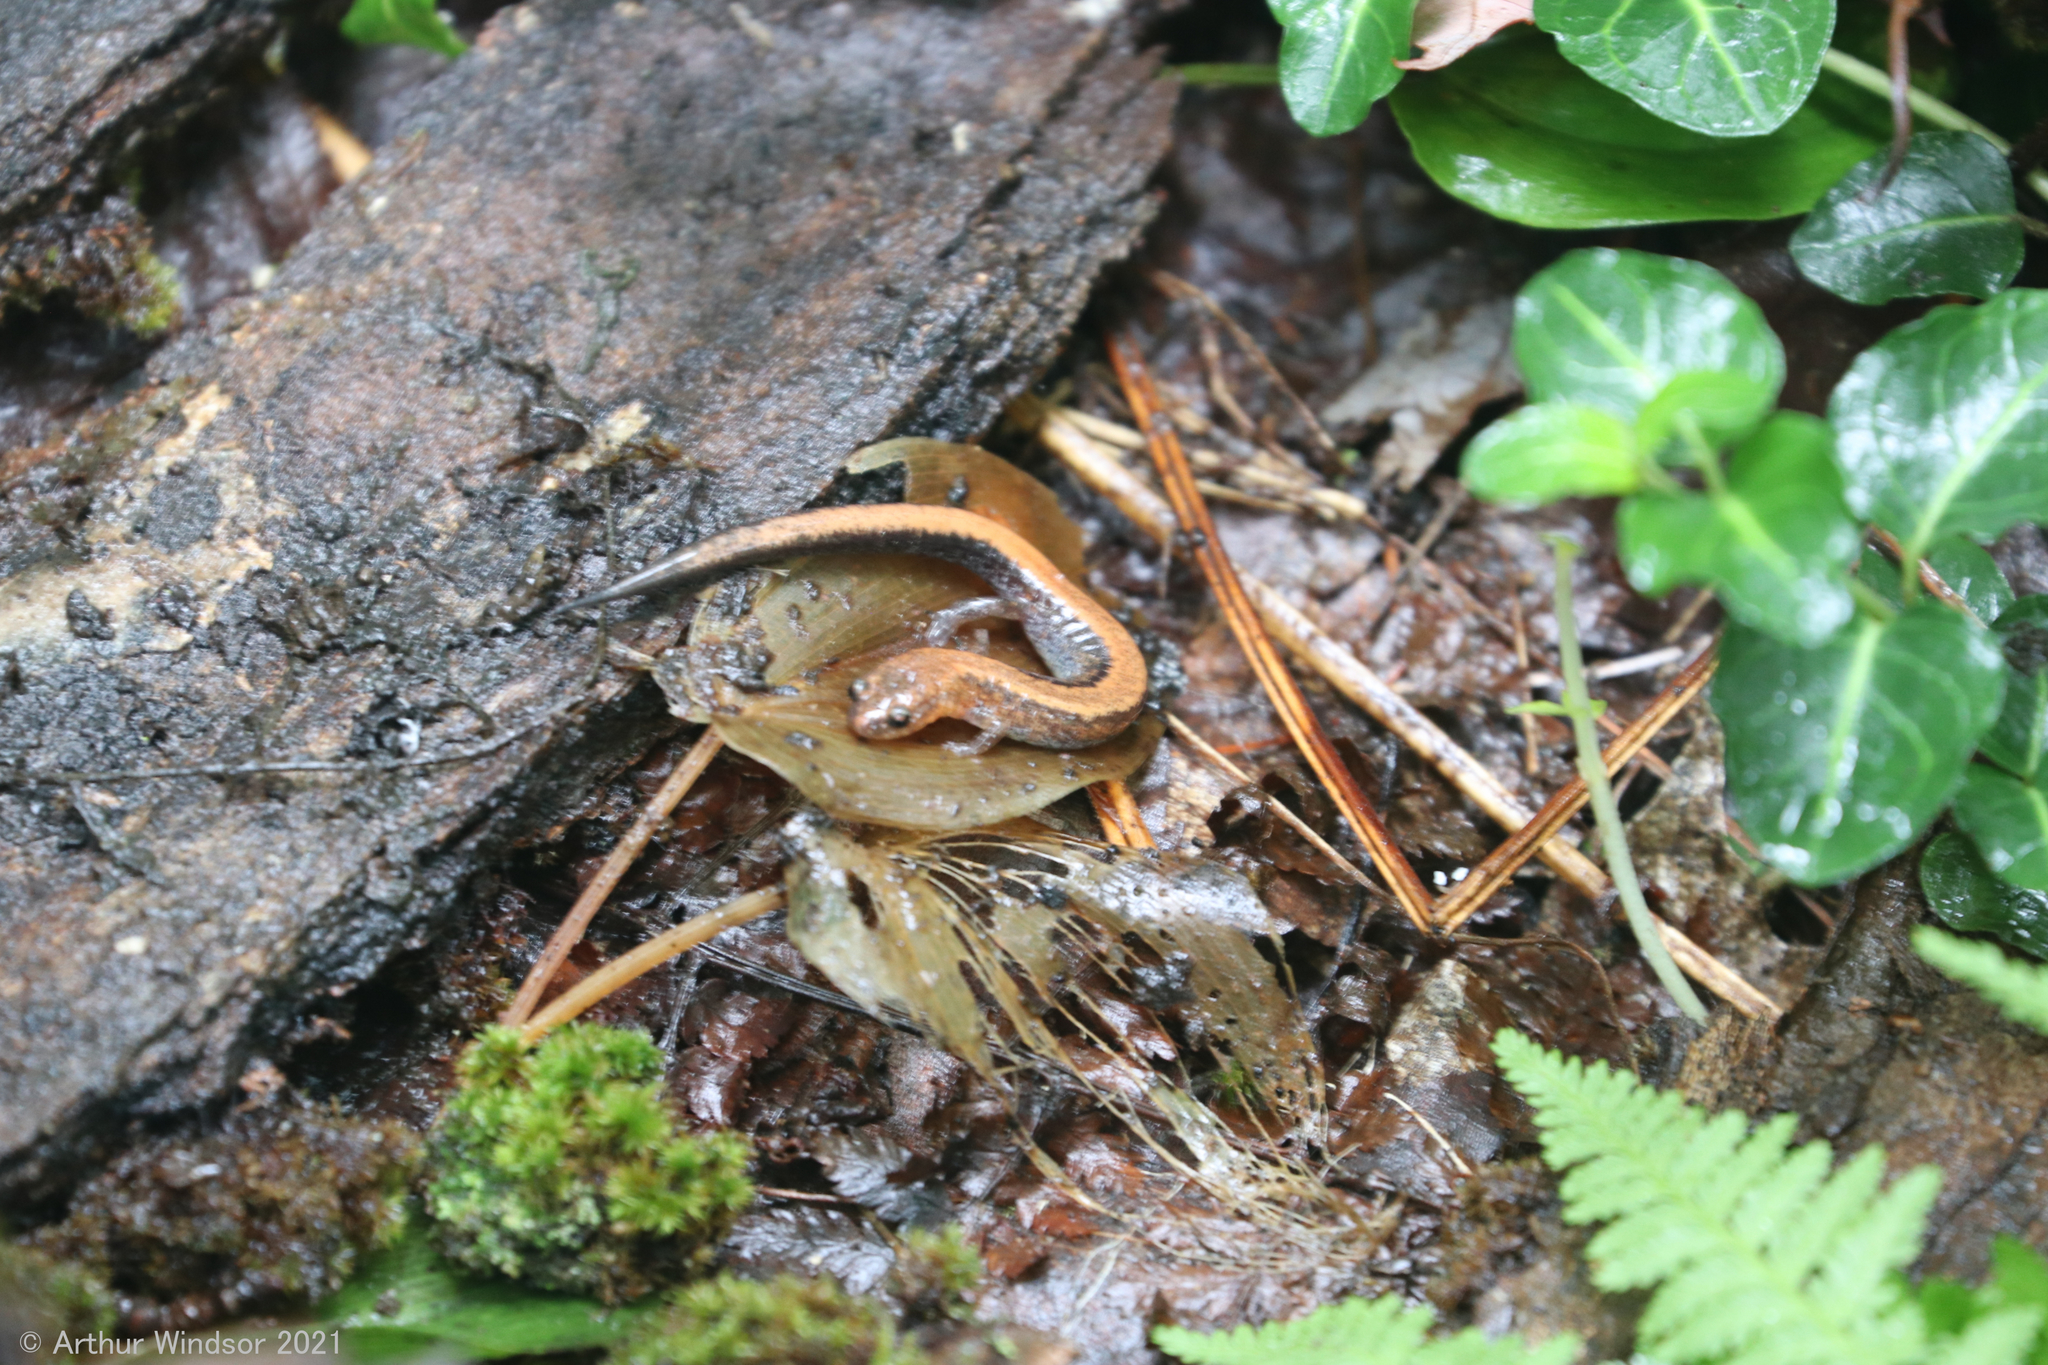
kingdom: Animalia
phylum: Chordata
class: Amphibia
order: Caudata
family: Plethodontidae
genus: Plethodon
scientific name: Plethodon cinereus
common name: Redback salamander
